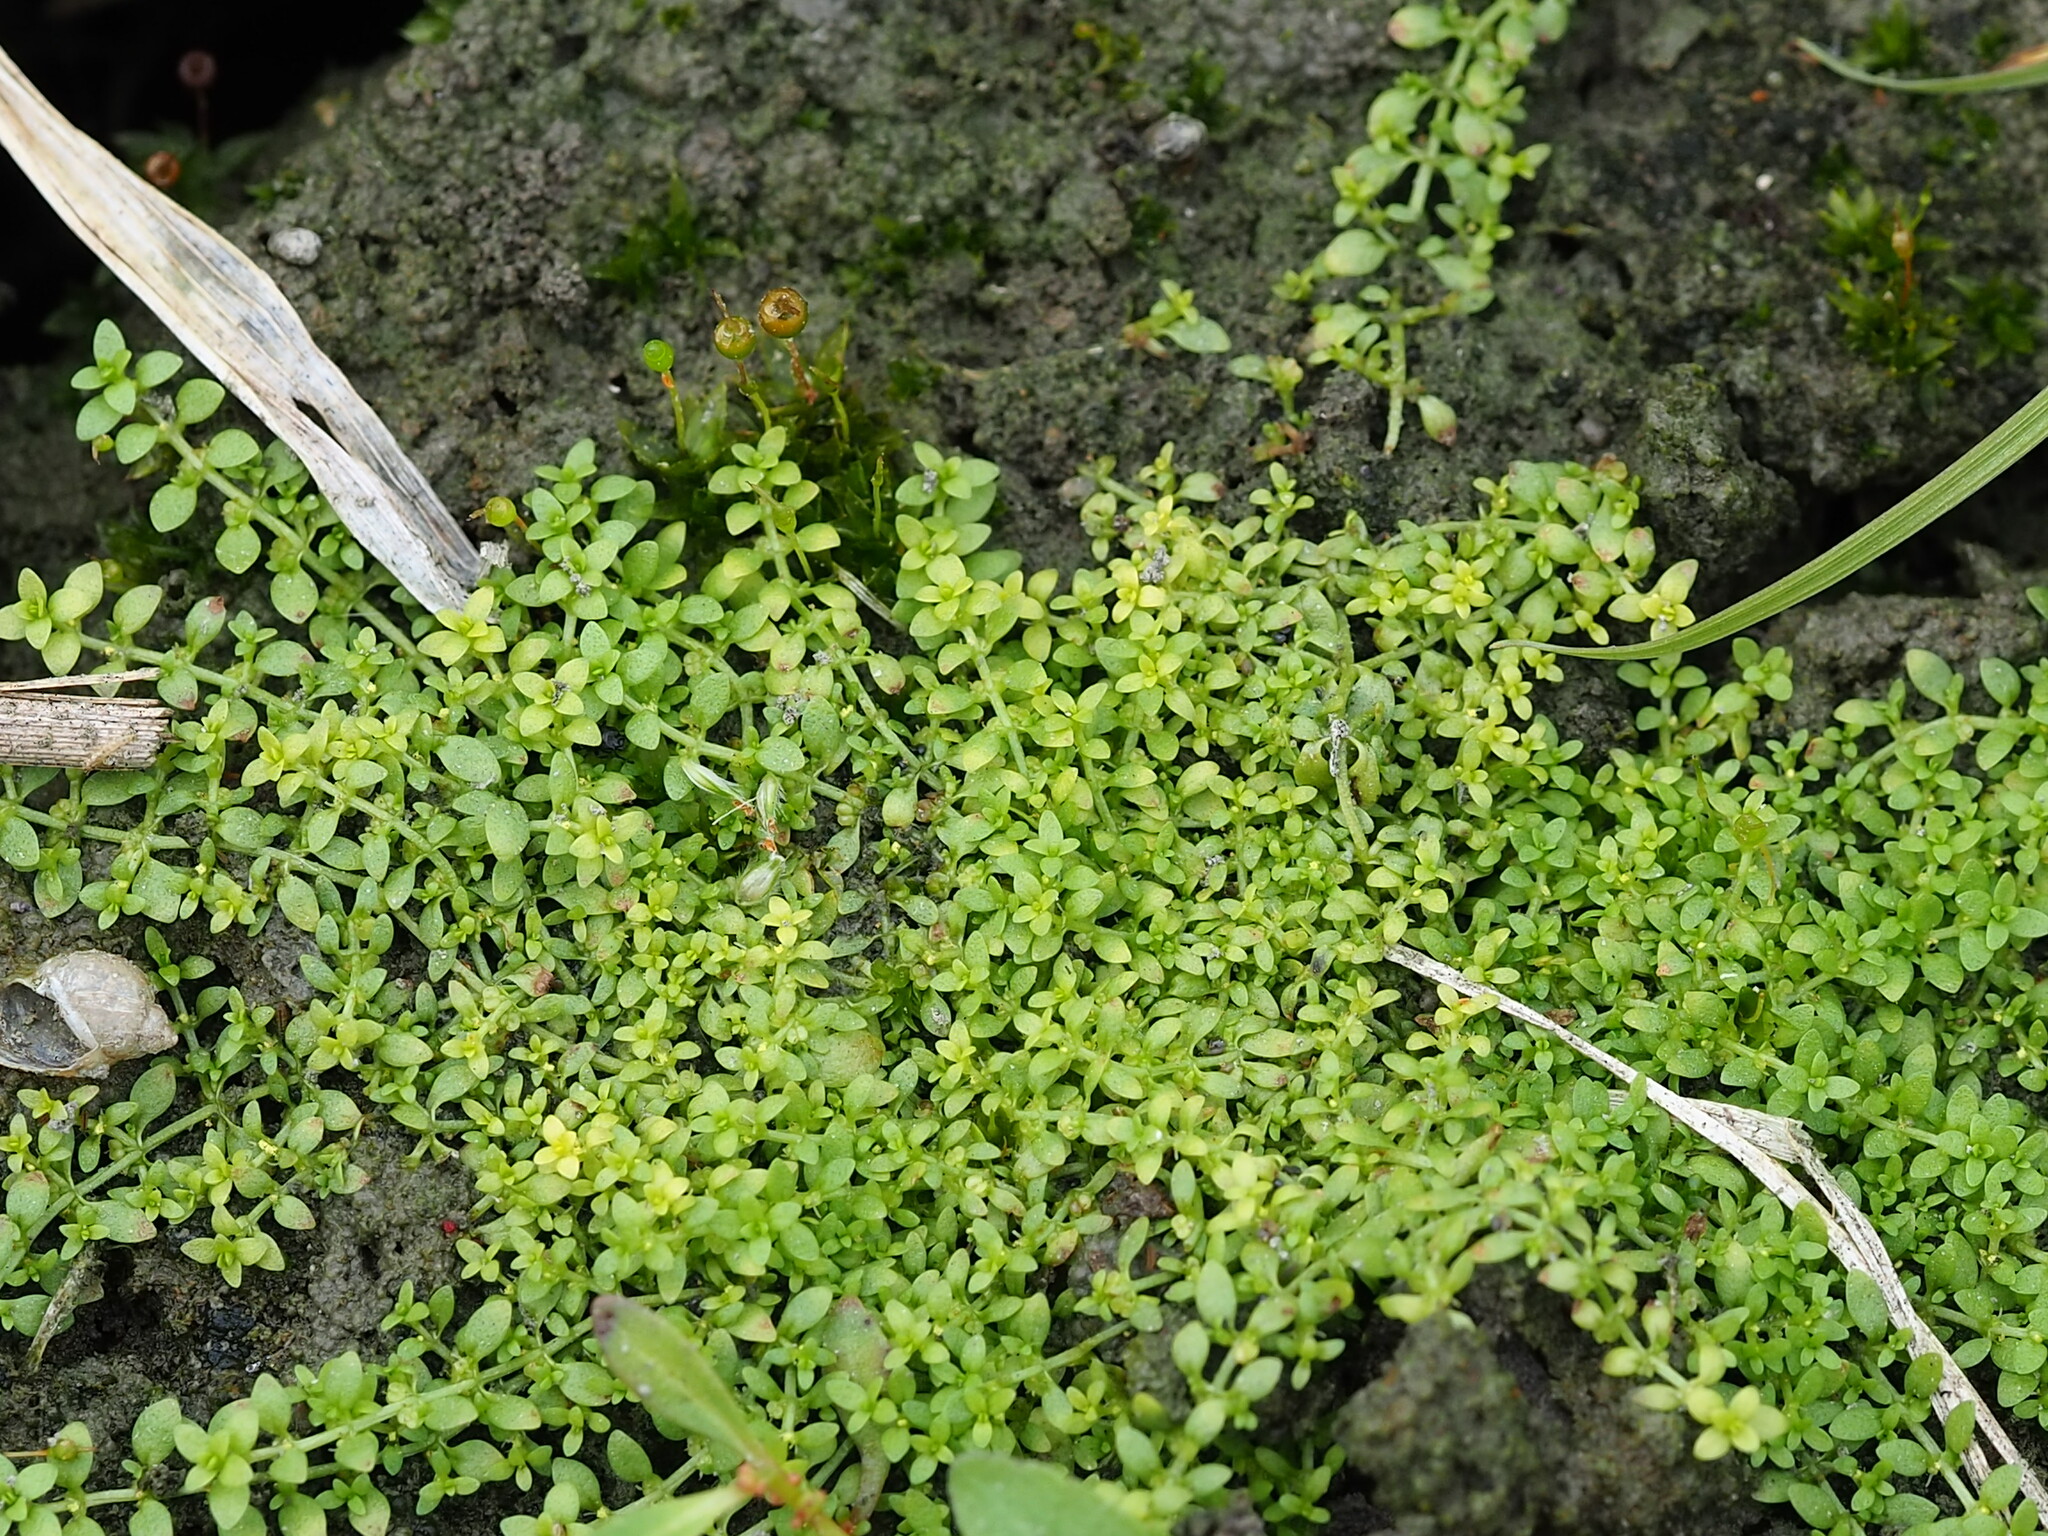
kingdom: Plantae
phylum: Tracheophyta
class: Magnoliopsida
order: Lamiales
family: Plantaginaceae
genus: Callitriche
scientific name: Callitriche stagnalis
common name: Common water-starwort
